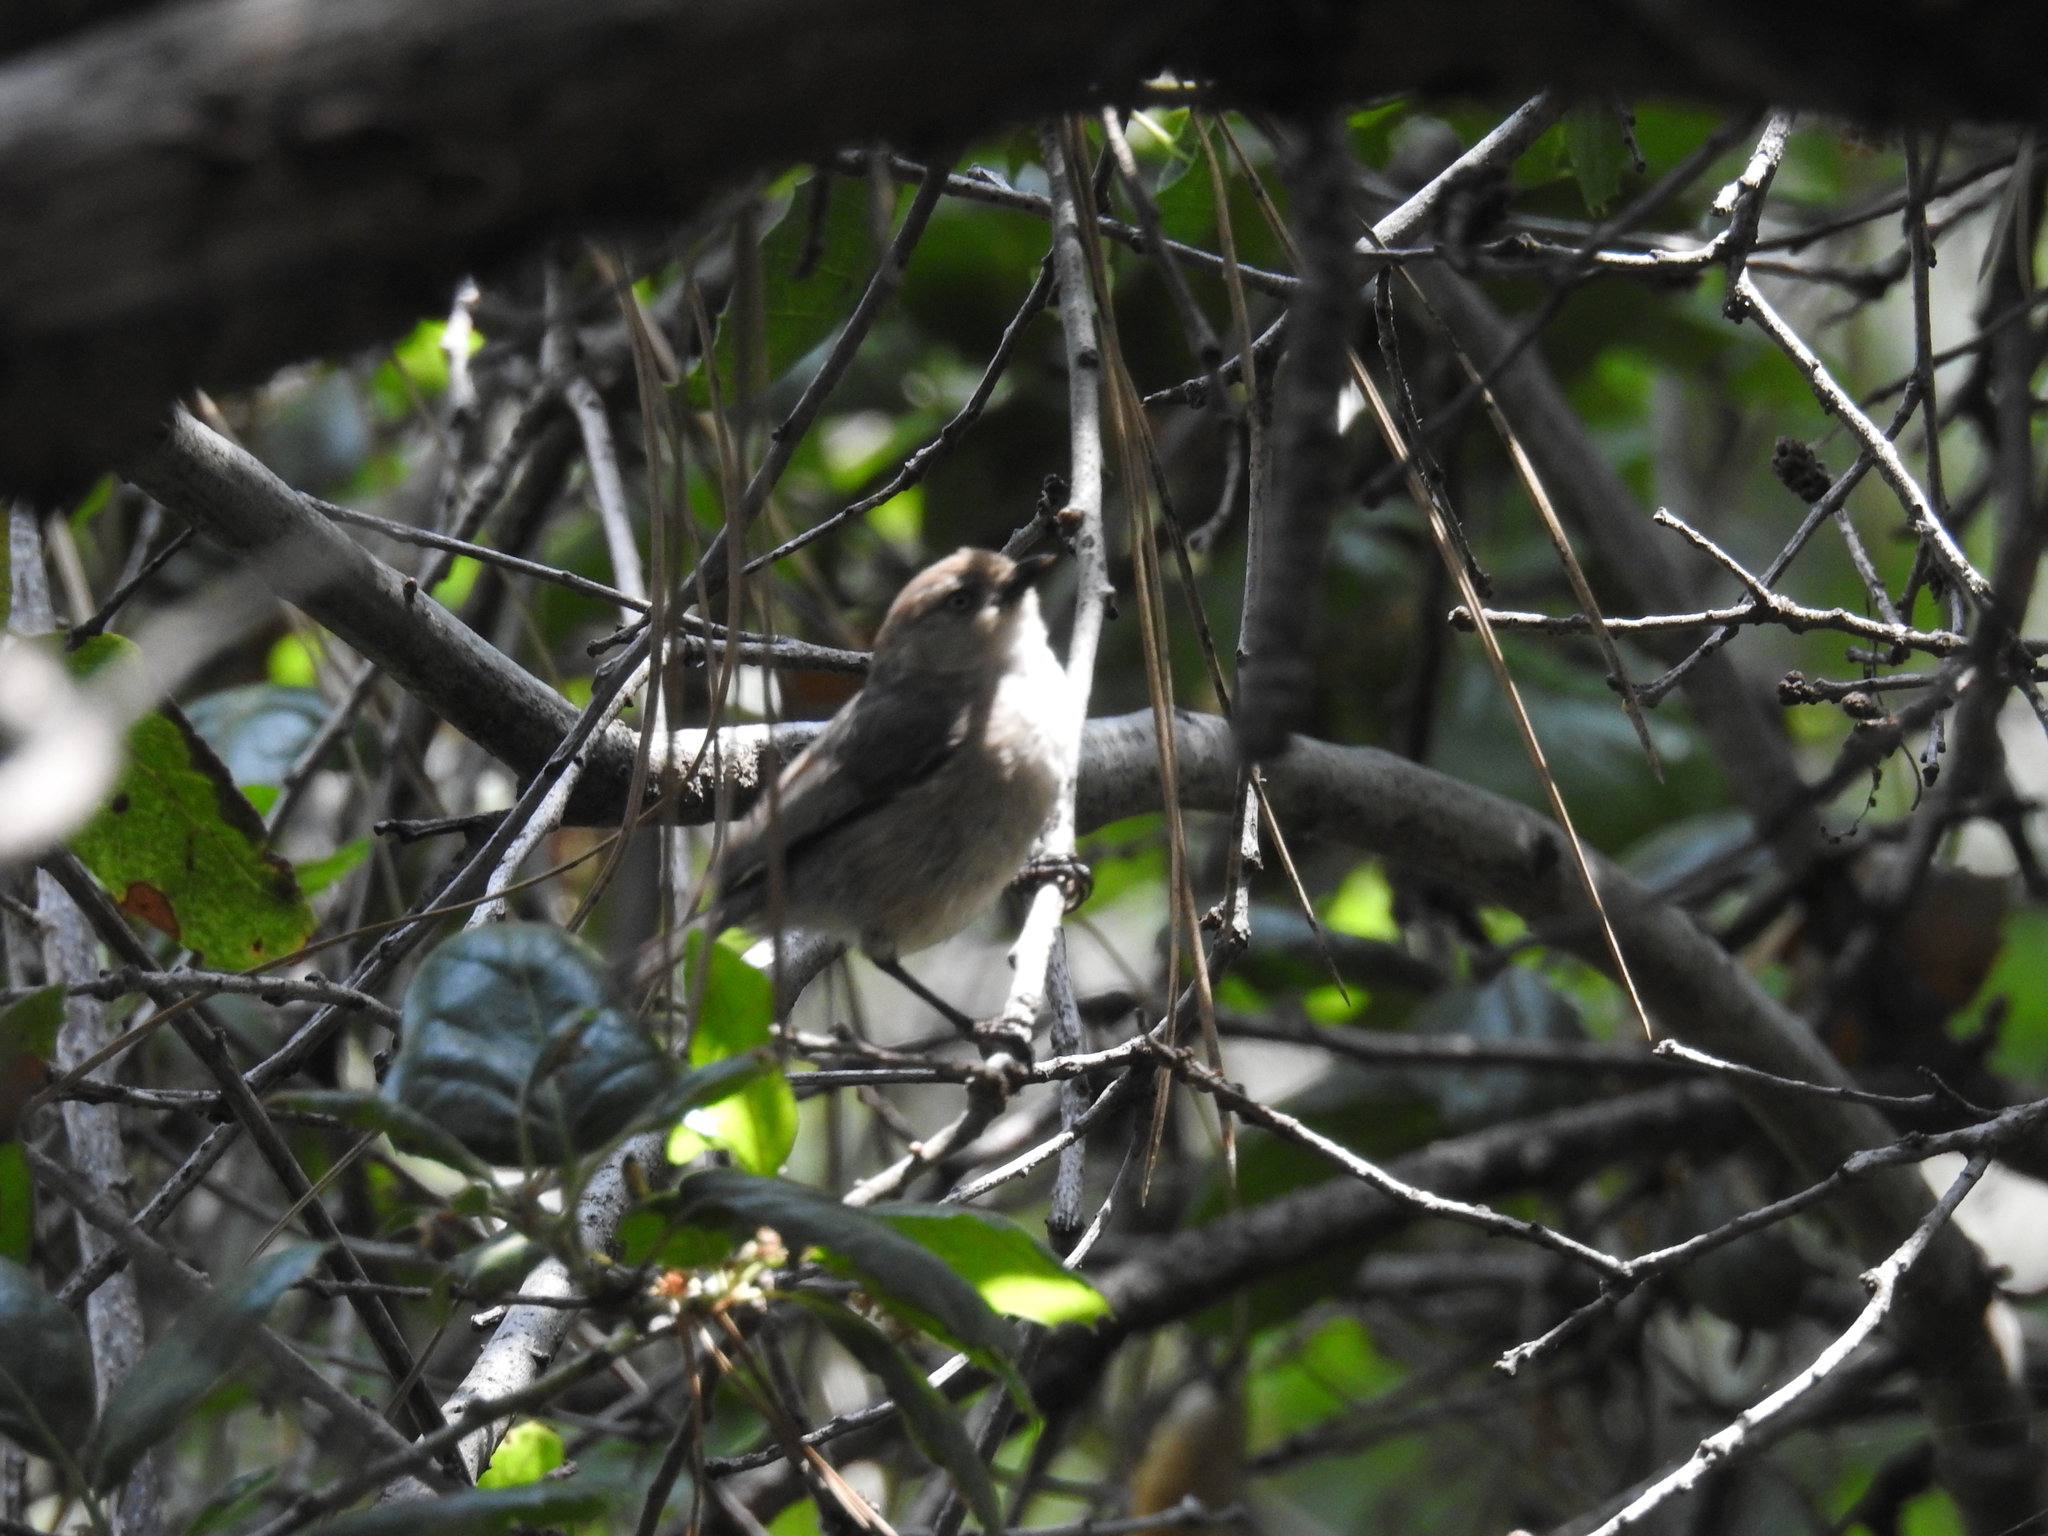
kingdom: Animalia
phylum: Chordata
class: Aves
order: Passeriformes
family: Aegithalidae
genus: Psaltriparus
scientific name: Psaltriparus minimus
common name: American bushtit
